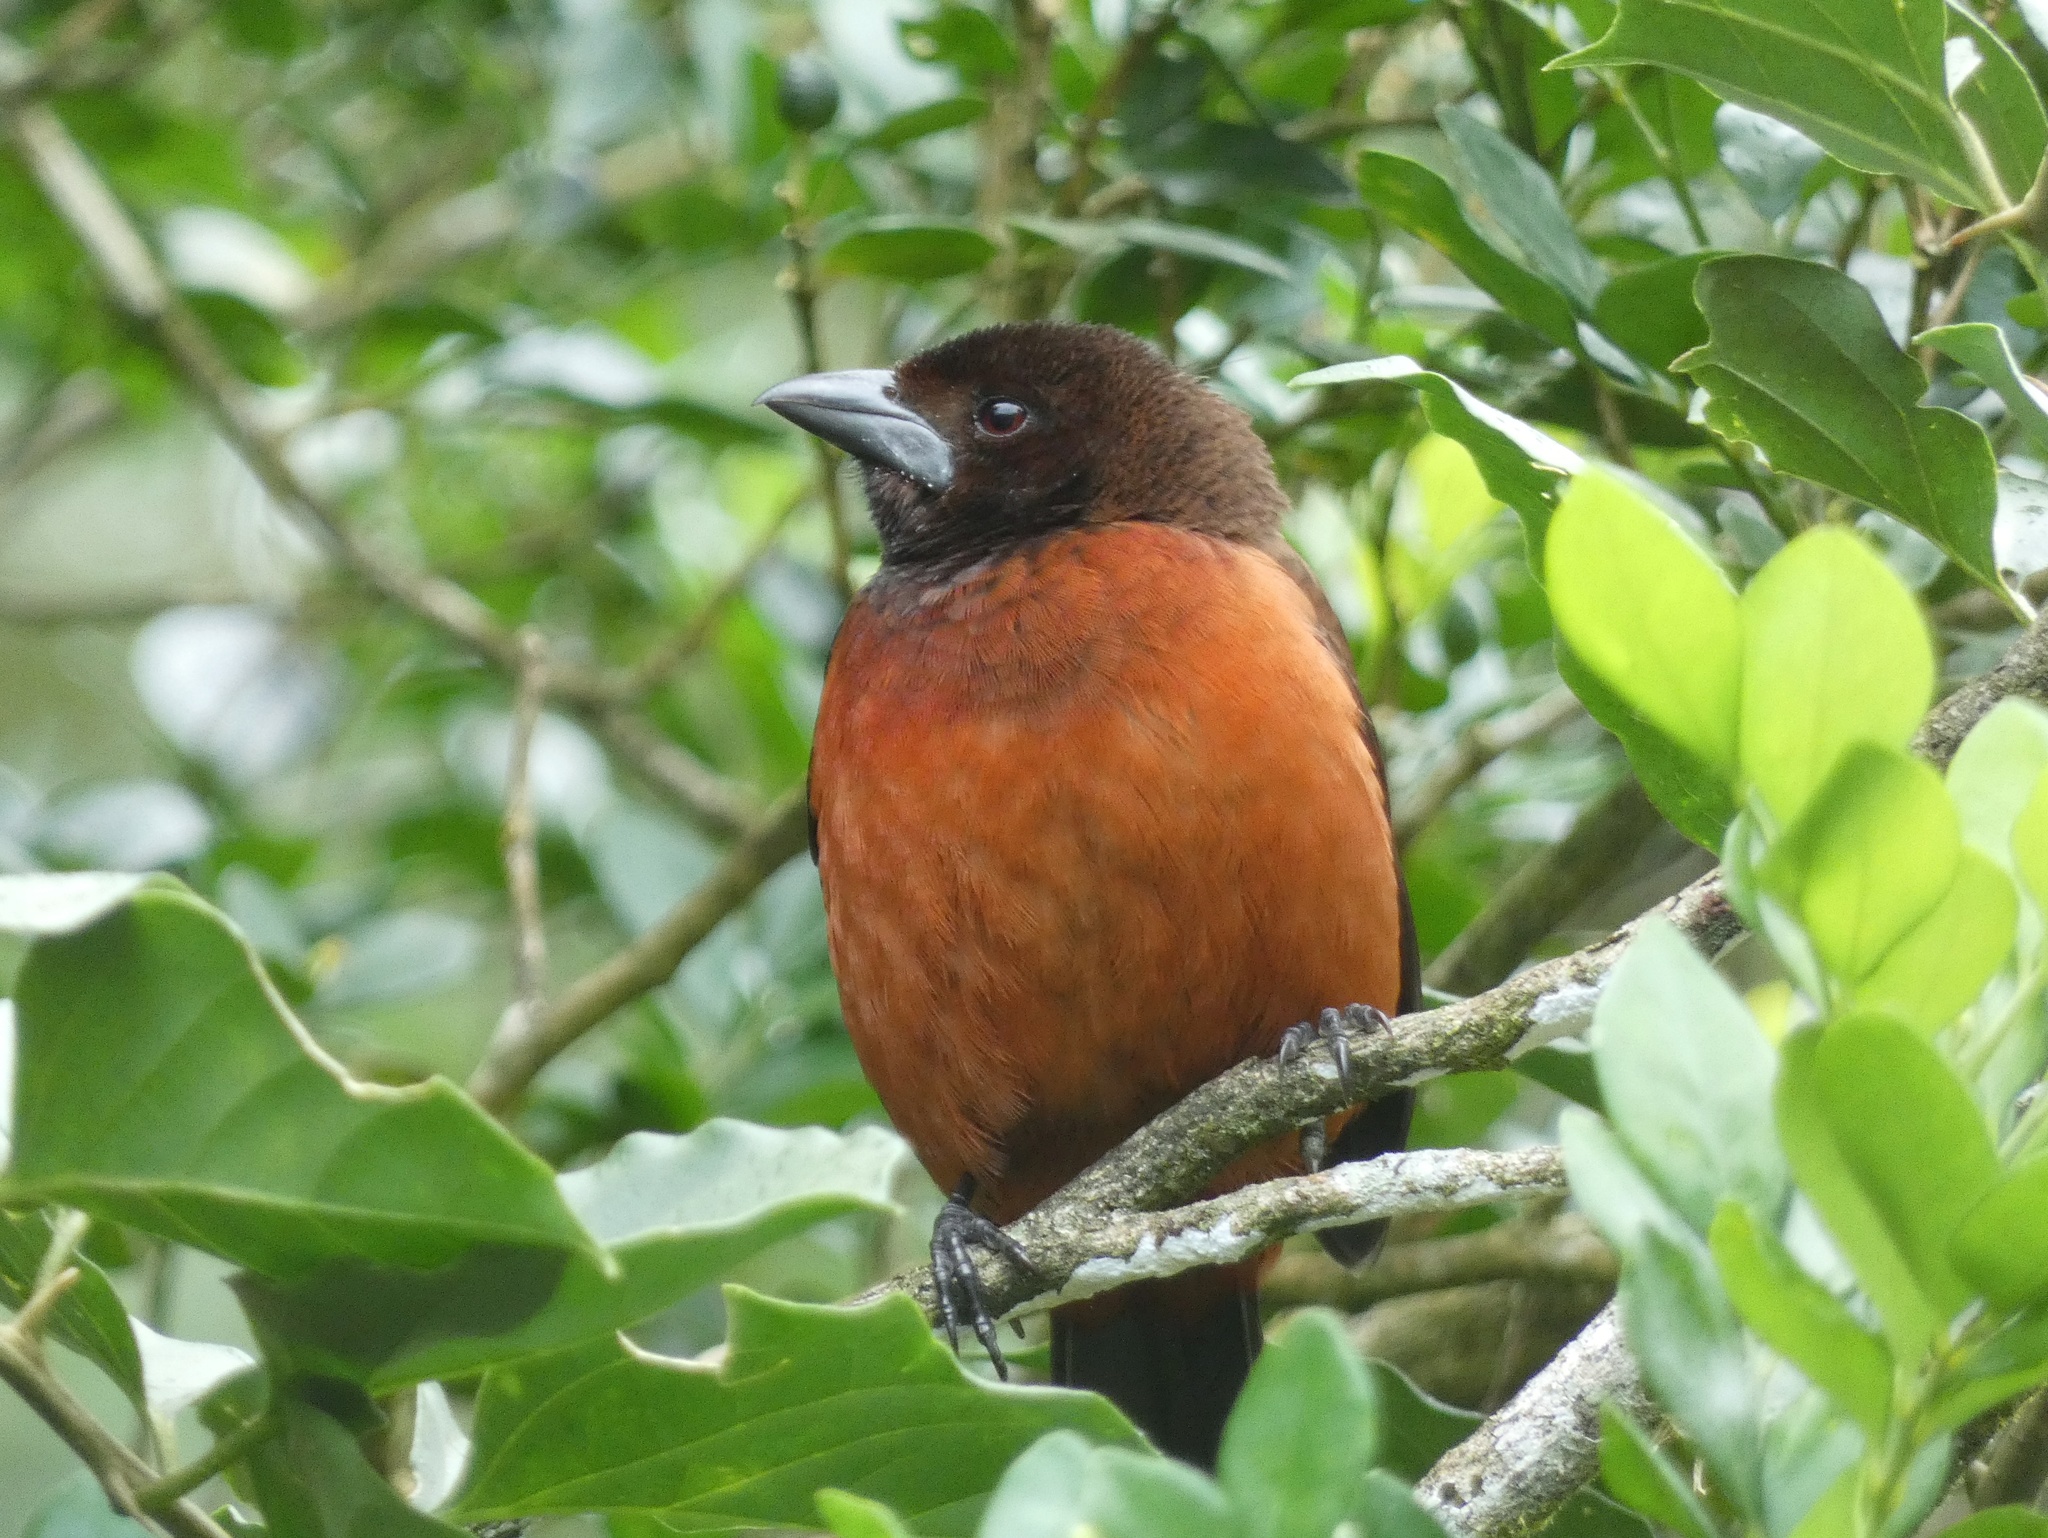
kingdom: Animalia
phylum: Chordata
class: Aves
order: Passeriformes
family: Thraupidae
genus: Ramphocelus
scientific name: Ramphocelus dimidiatus
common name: Crimson-backed tanager
